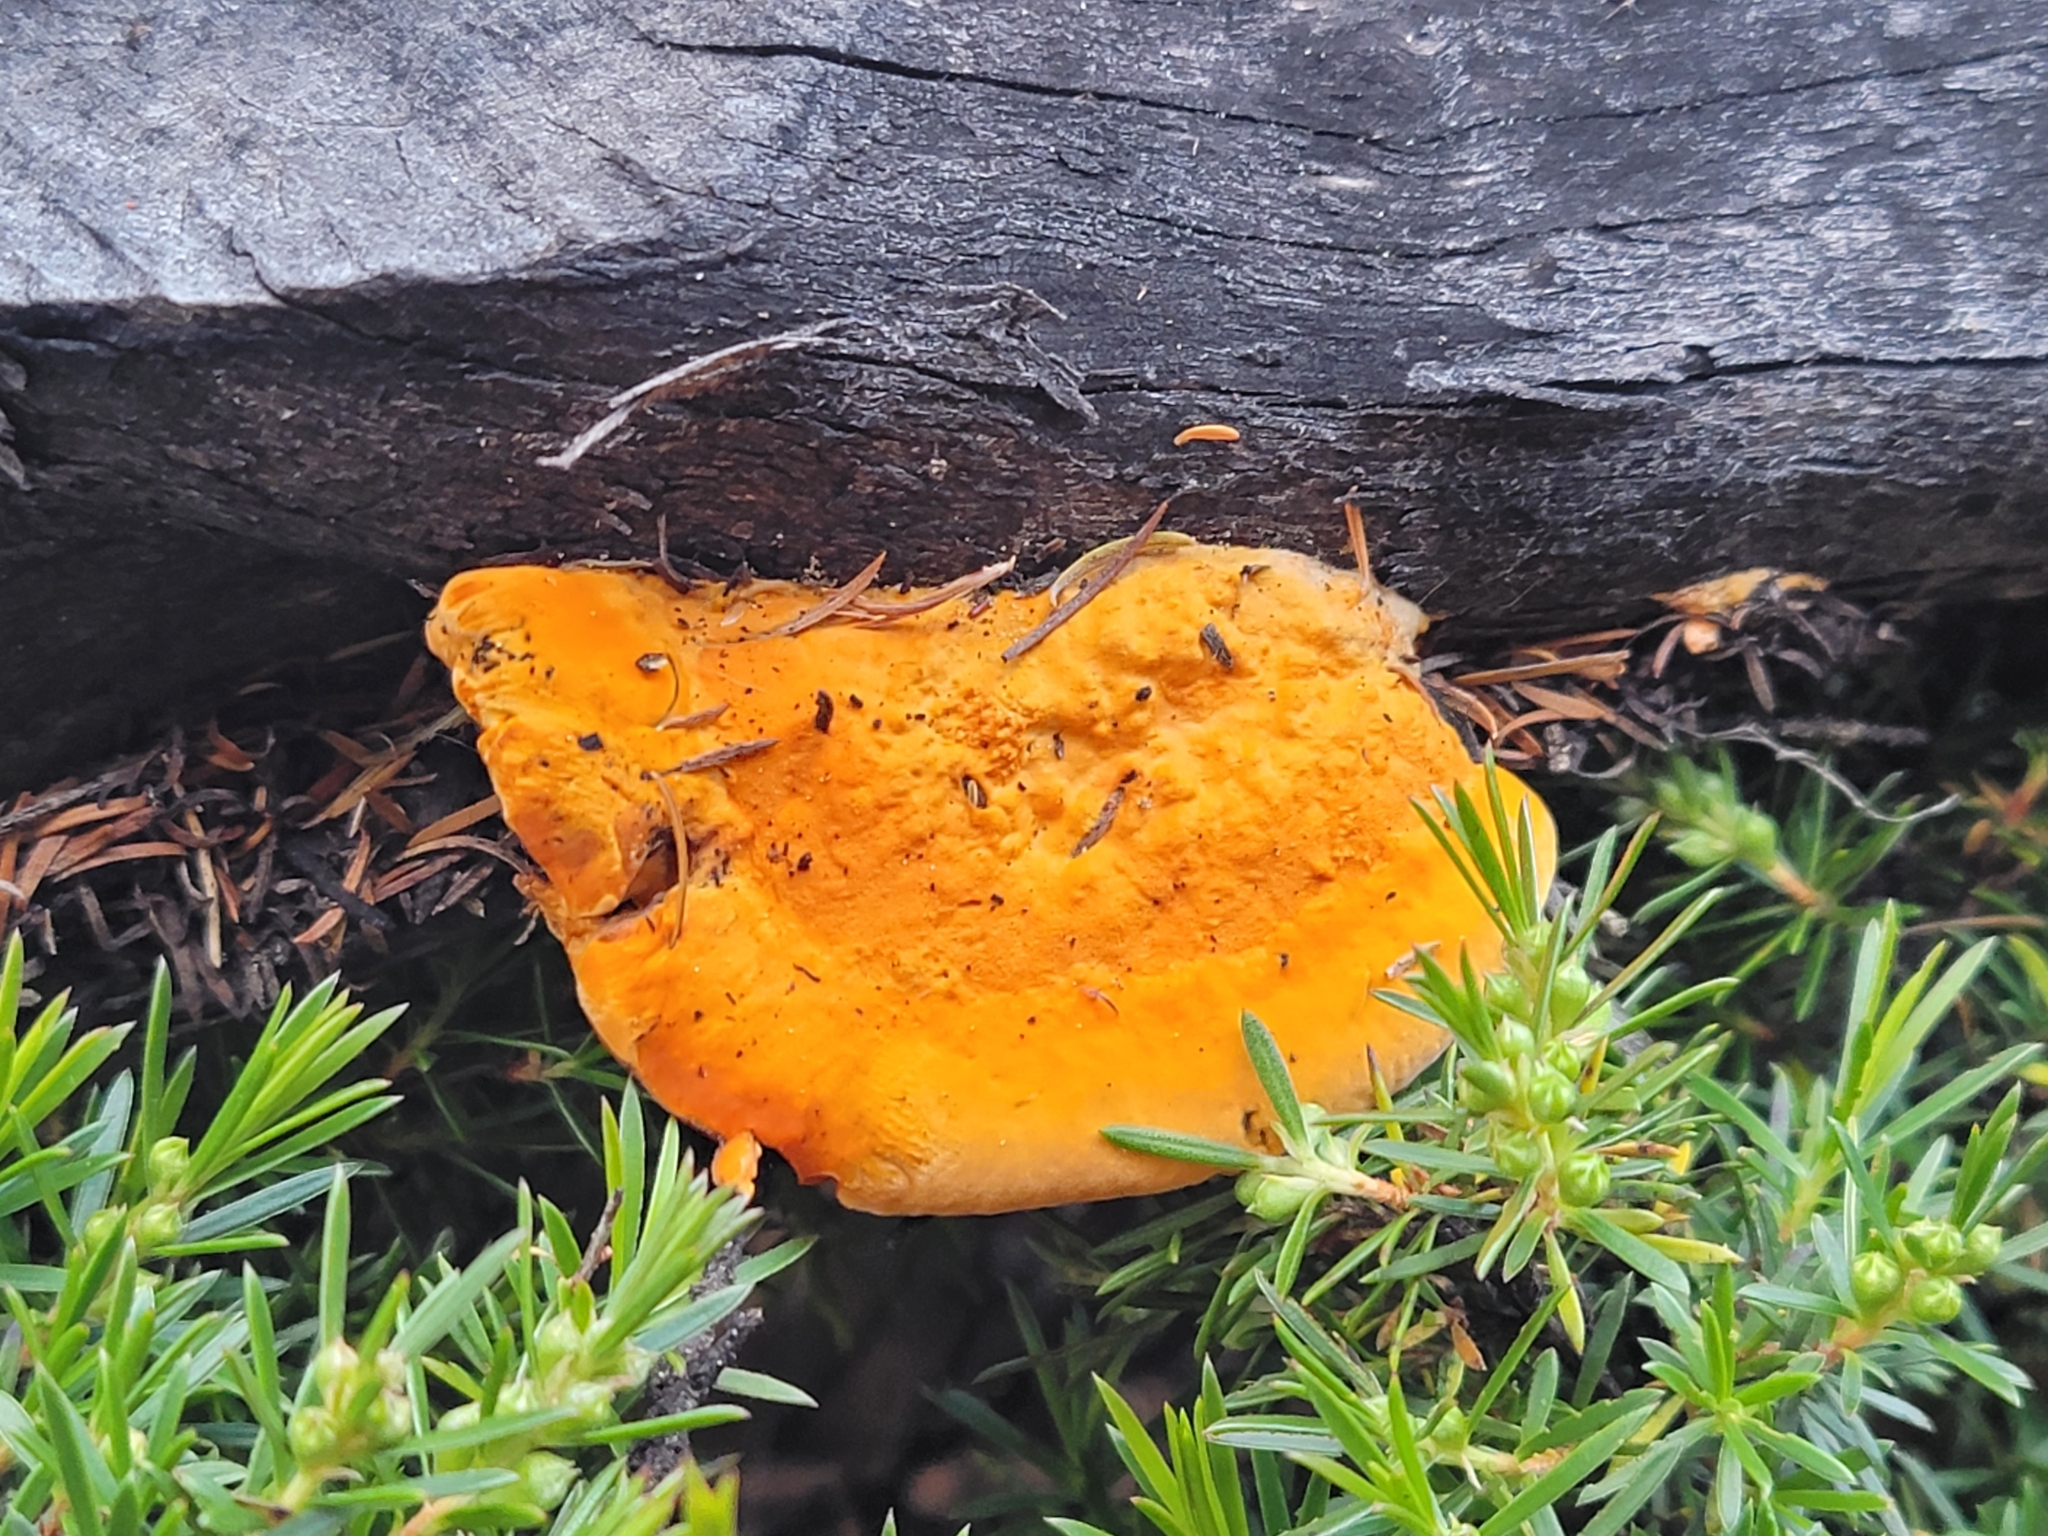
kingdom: Fungi
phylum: Basidiomycota
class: Agaricomycetes
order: Polyporales
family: Polyporaceae
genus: Trametes
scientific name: Trametes coccinea
